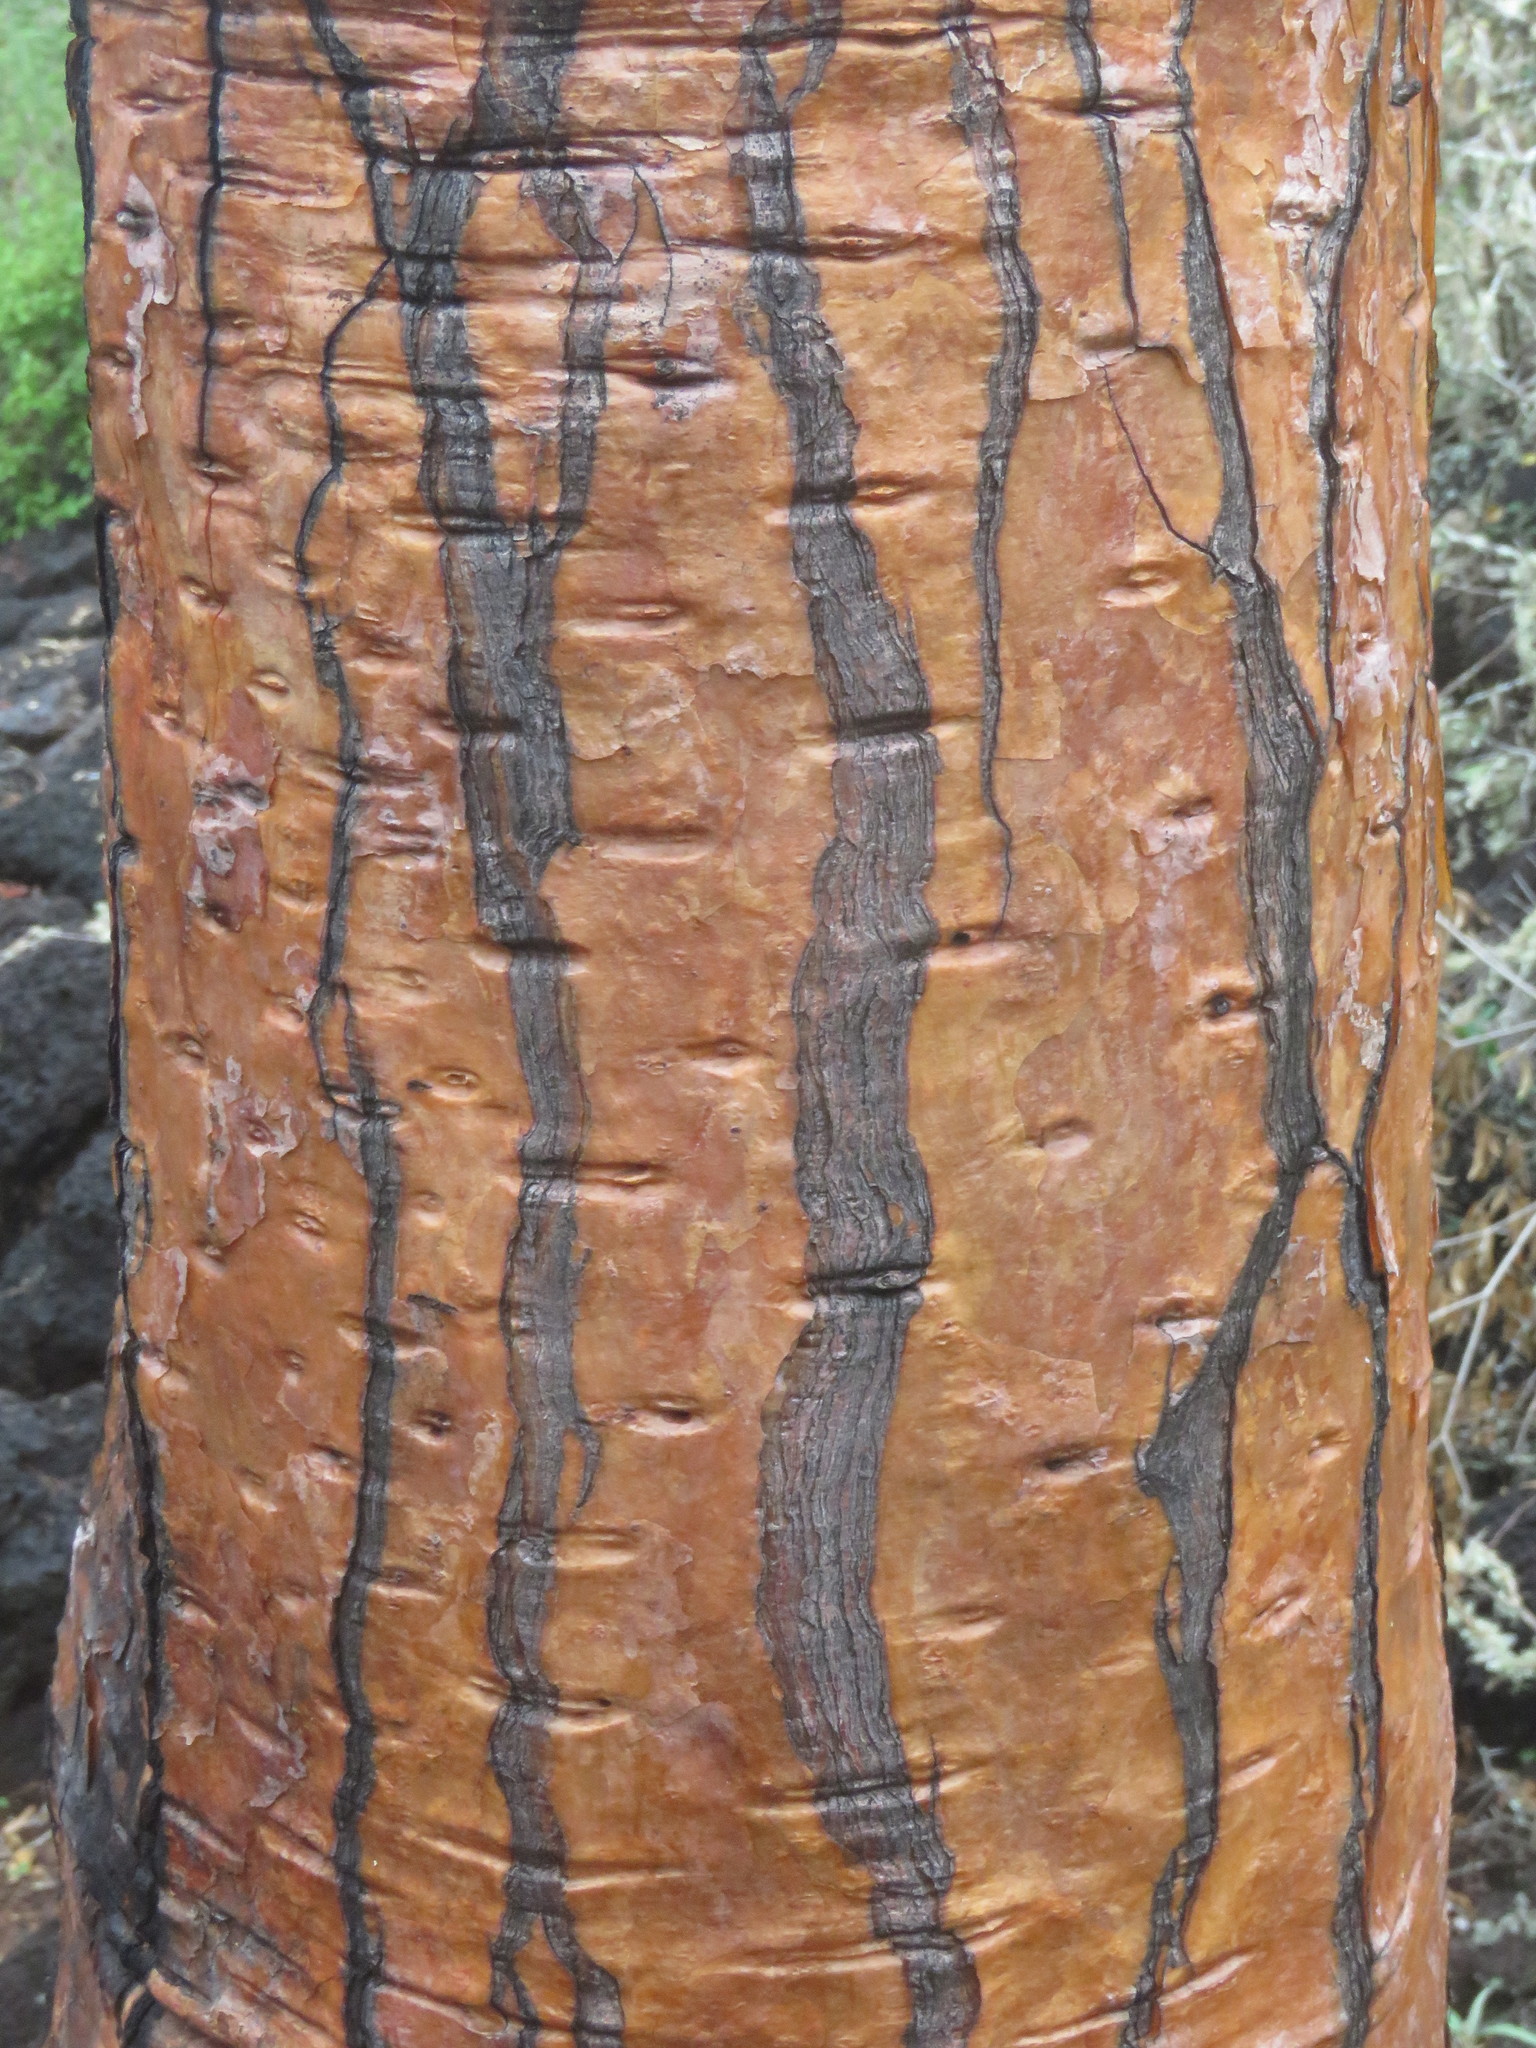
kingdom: Plantae
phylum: Tracheophyta
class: Magnoliopsida
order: Caryophyllales
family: Cactaceae
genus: Opuntia
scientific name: Opuntia galapageia
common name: Galápagos prickly pear
